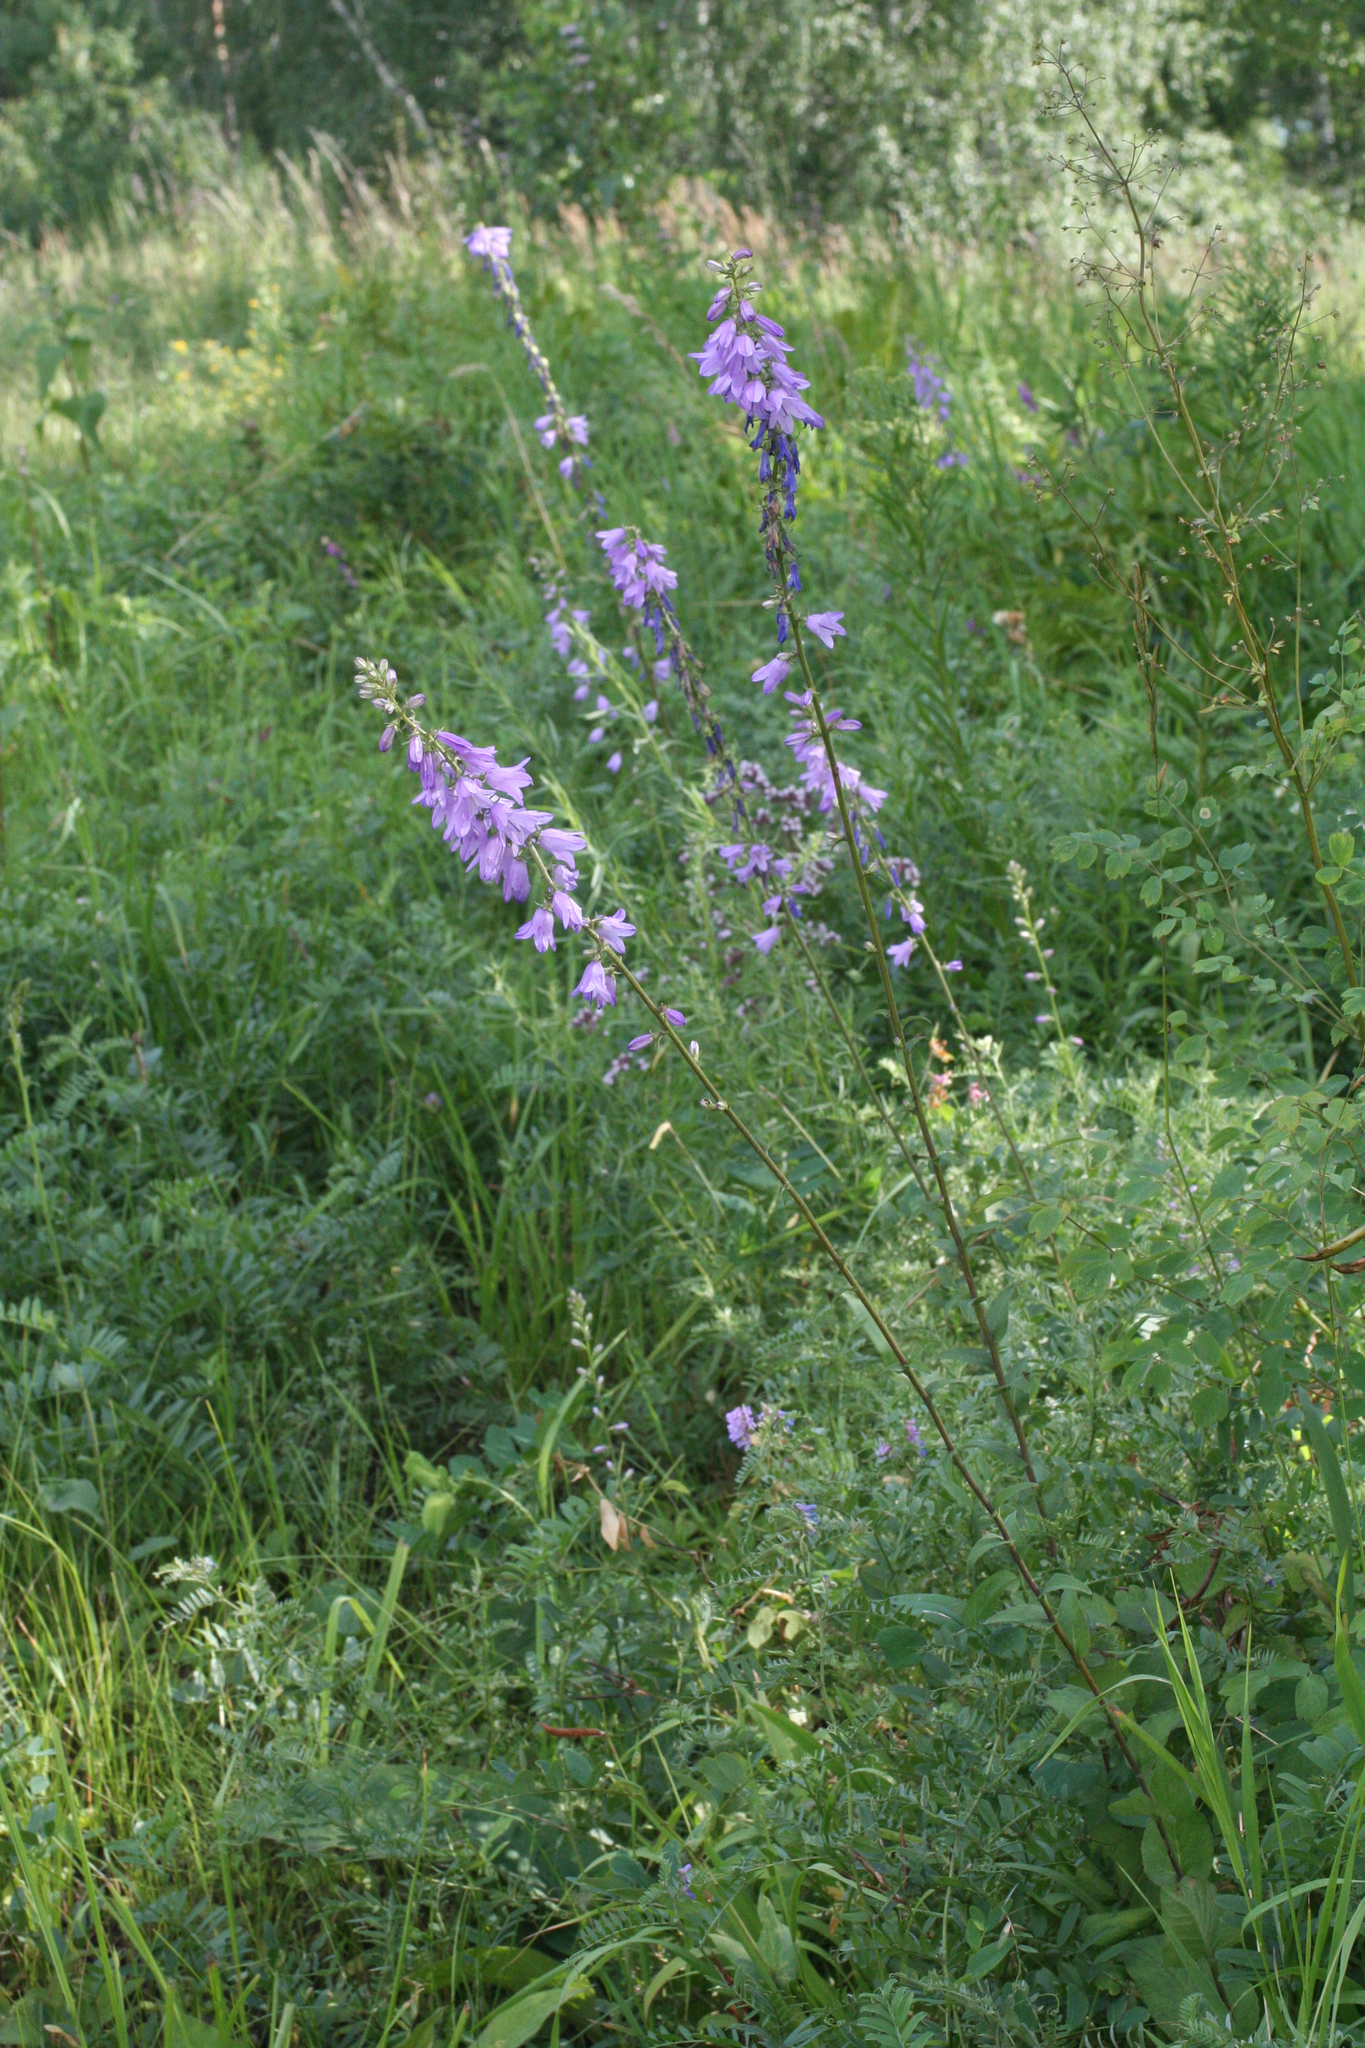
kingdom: Plantae
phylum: Tracheophyta
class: Magnoliopsida
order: Asterales
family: Campanulaceae
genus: Campanula
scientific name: Campanula bononiensis
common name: Pale bellflower
